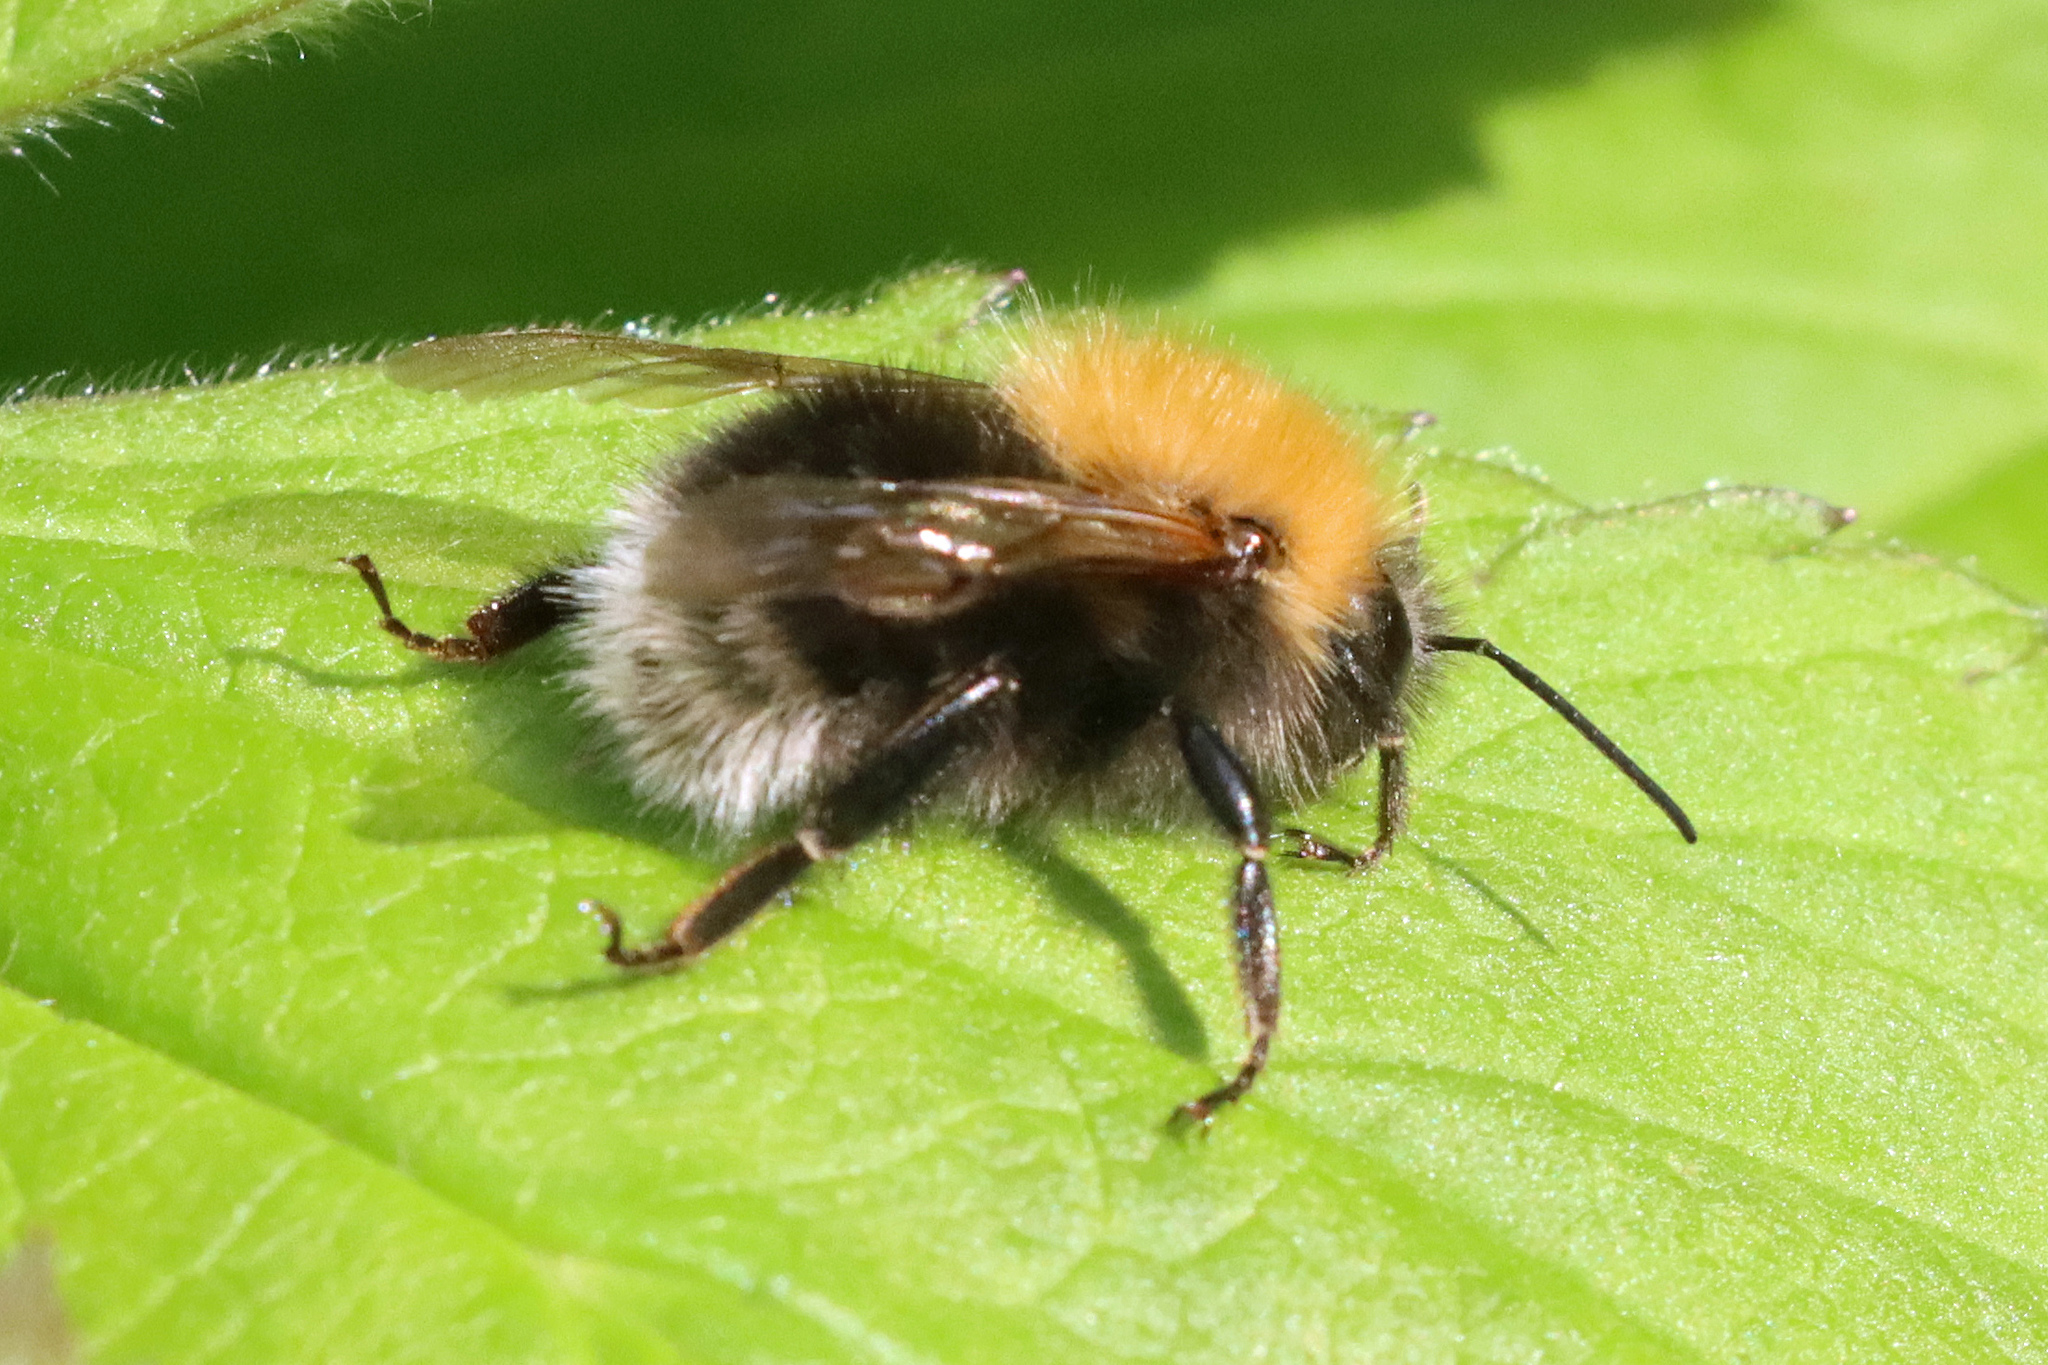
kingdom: Animalia
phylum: Arthropoda
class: Insecta
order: Hymenoptera
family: Apidae
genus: Bombus
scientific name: Bombus hypnorum
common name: New garden bumblebee
